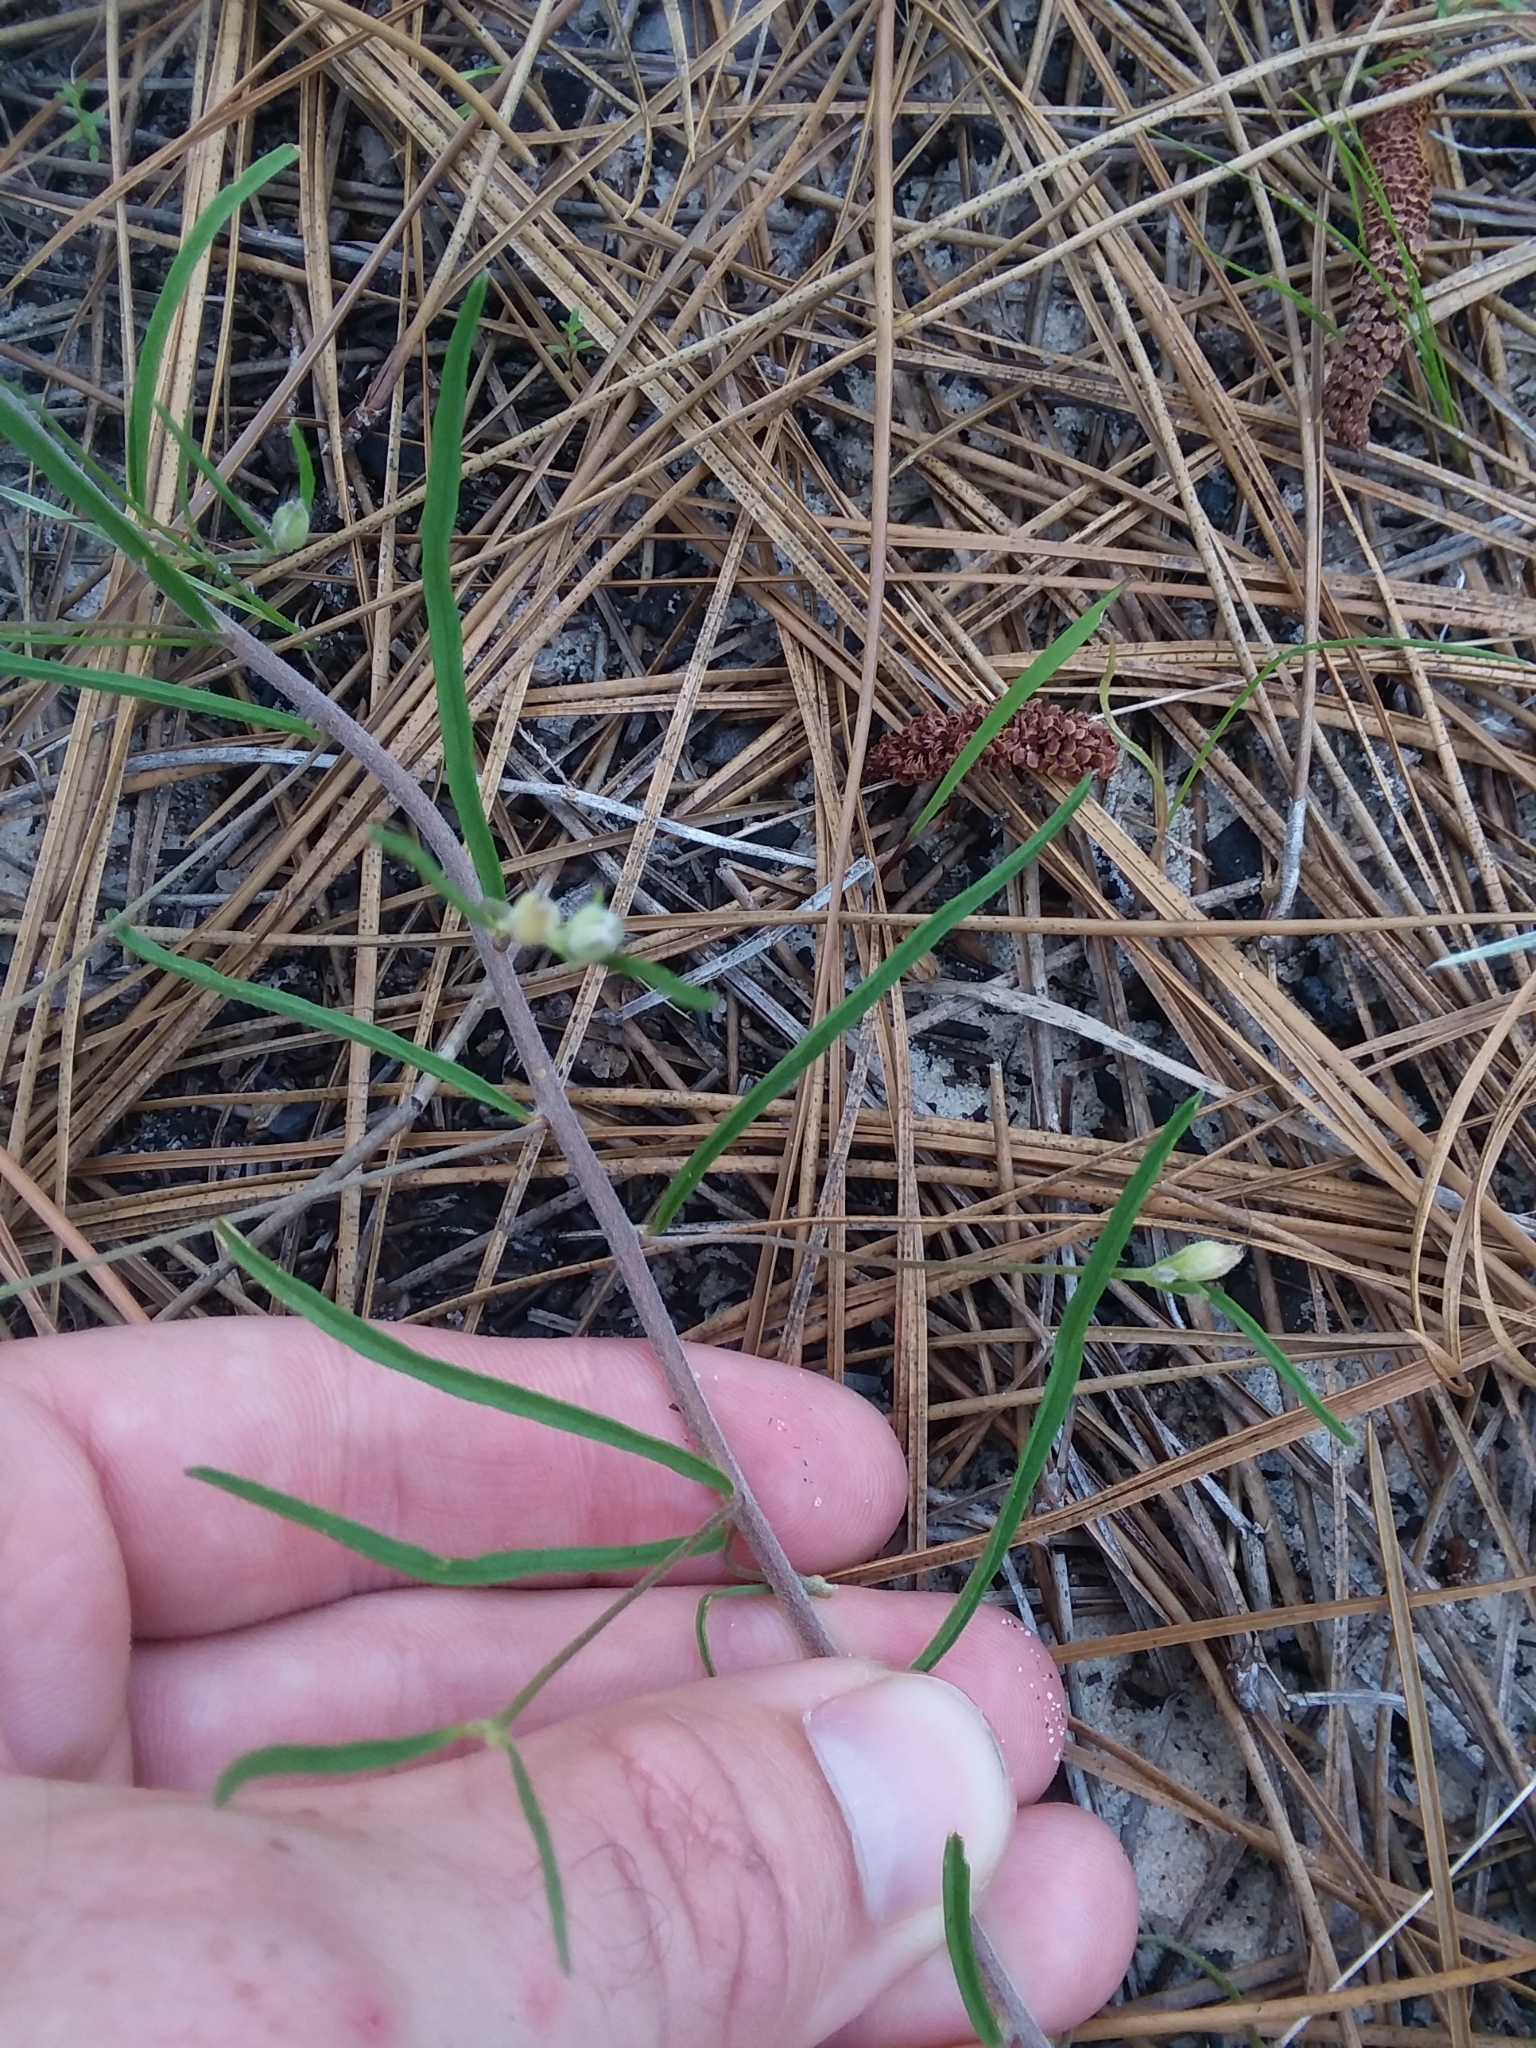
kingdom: Plantae
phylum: Tracheophyta
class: Magnoliopsida
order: Solanales
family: Convolvulaceae
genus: Stylisma
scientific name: Stylisma pickeringii
